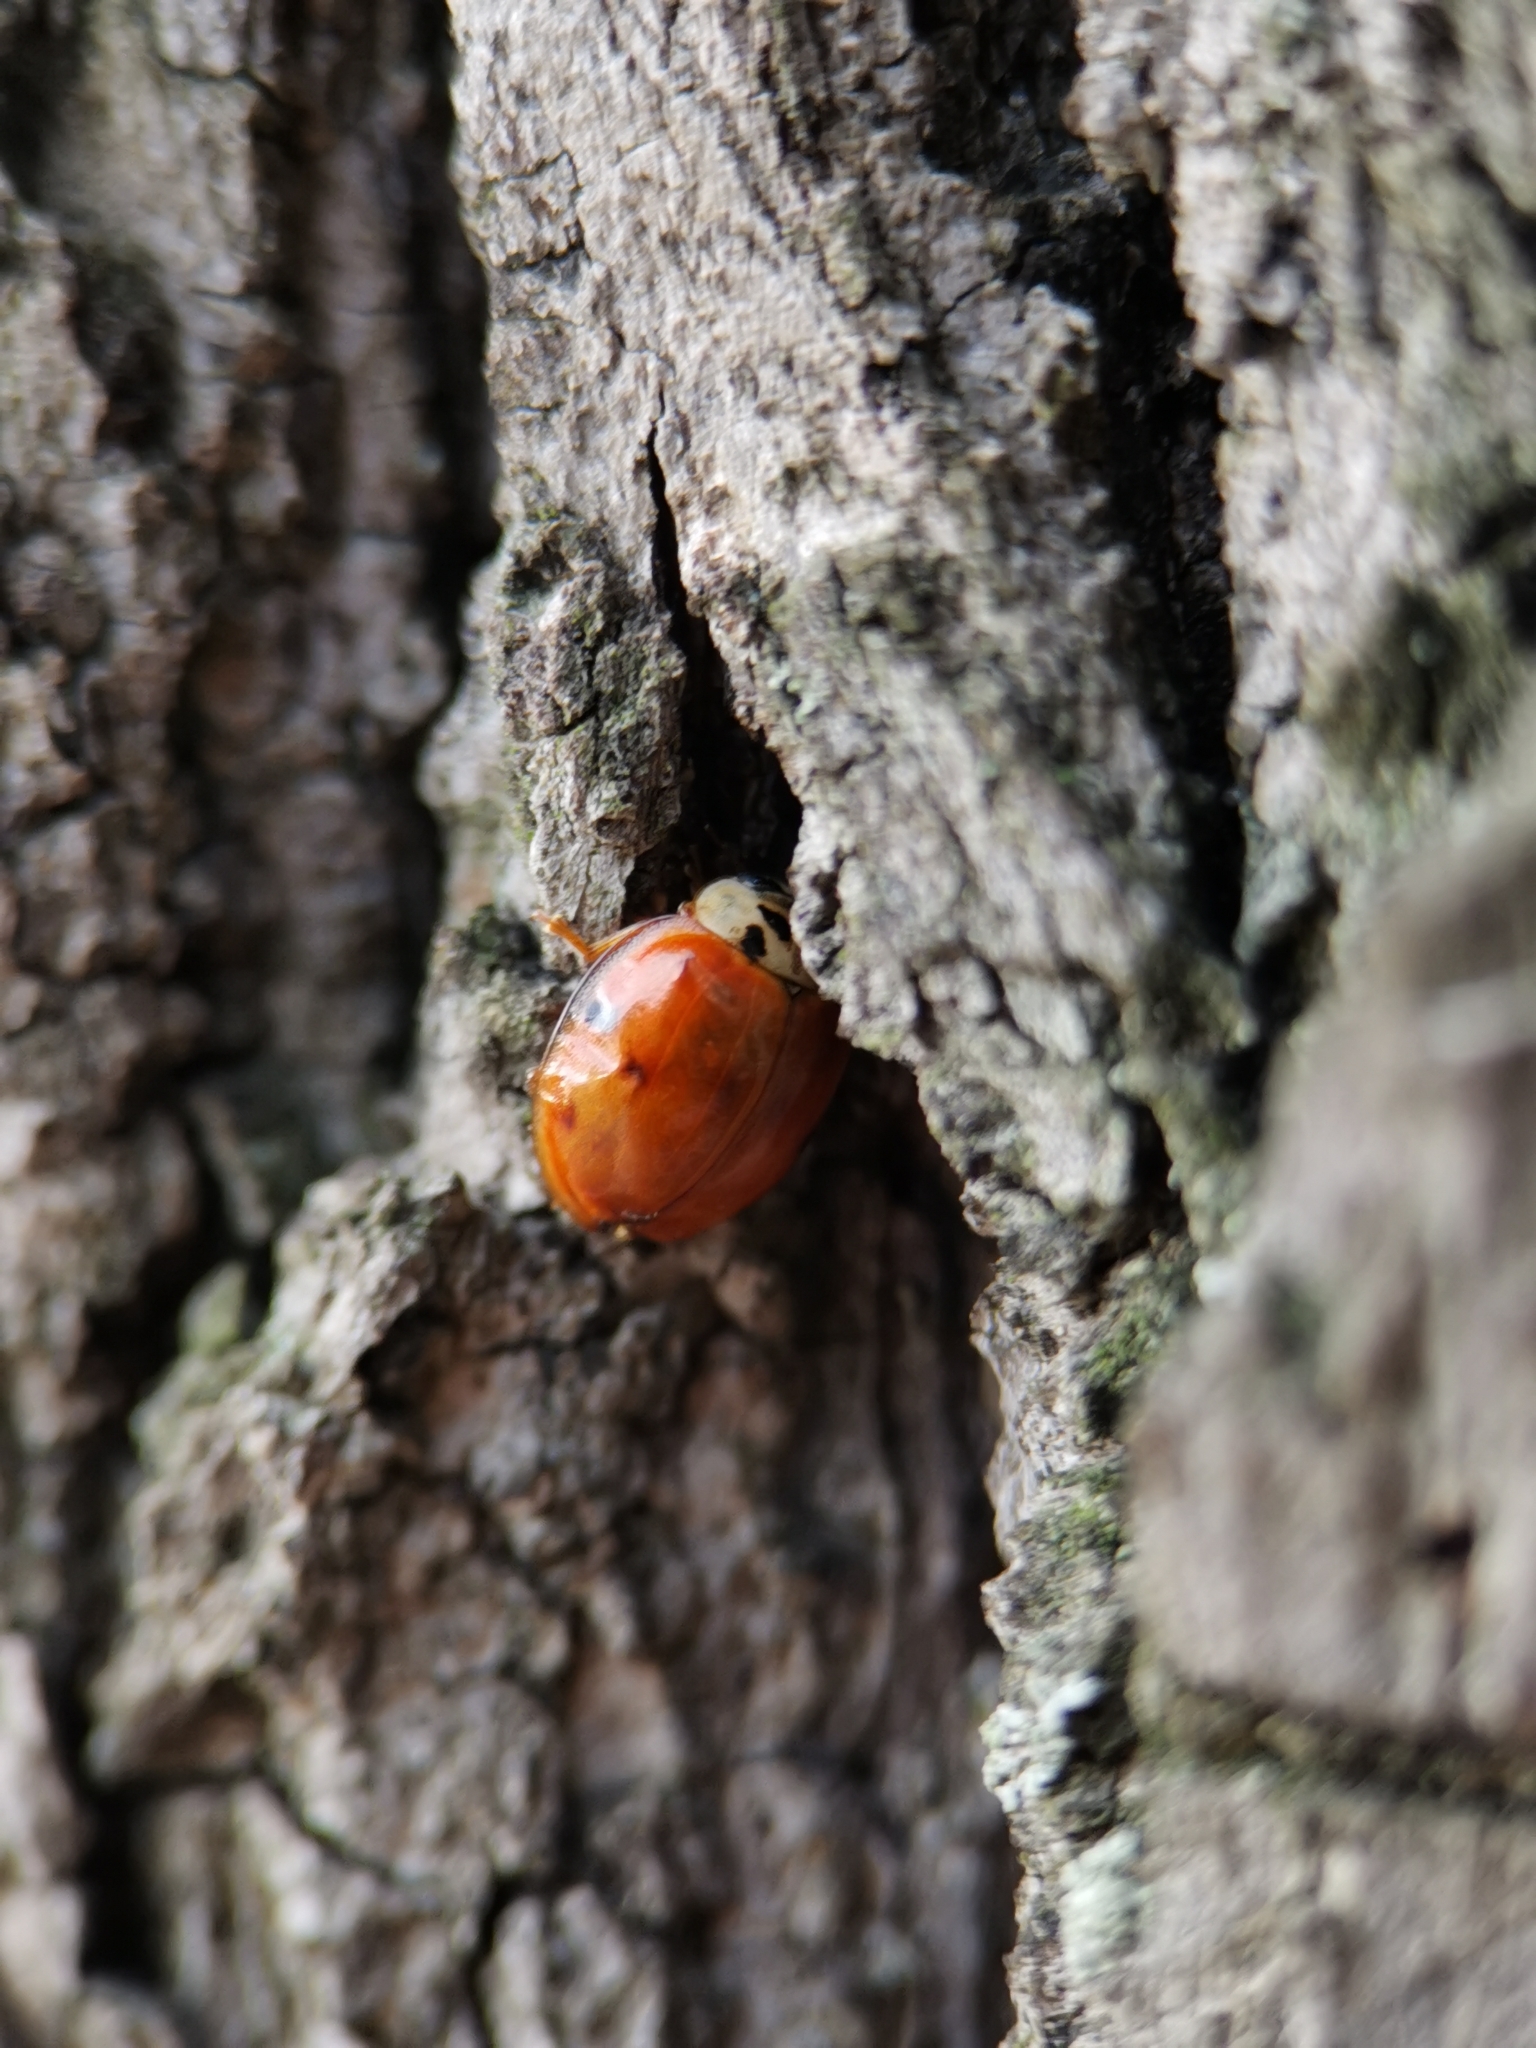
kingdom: Animalia
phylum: Arthropoda
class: Insecta
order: Coleoptera
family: Coccinellidae
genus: Harmonia
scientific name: Harmonia axyridis
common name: Harlequin ladybird
